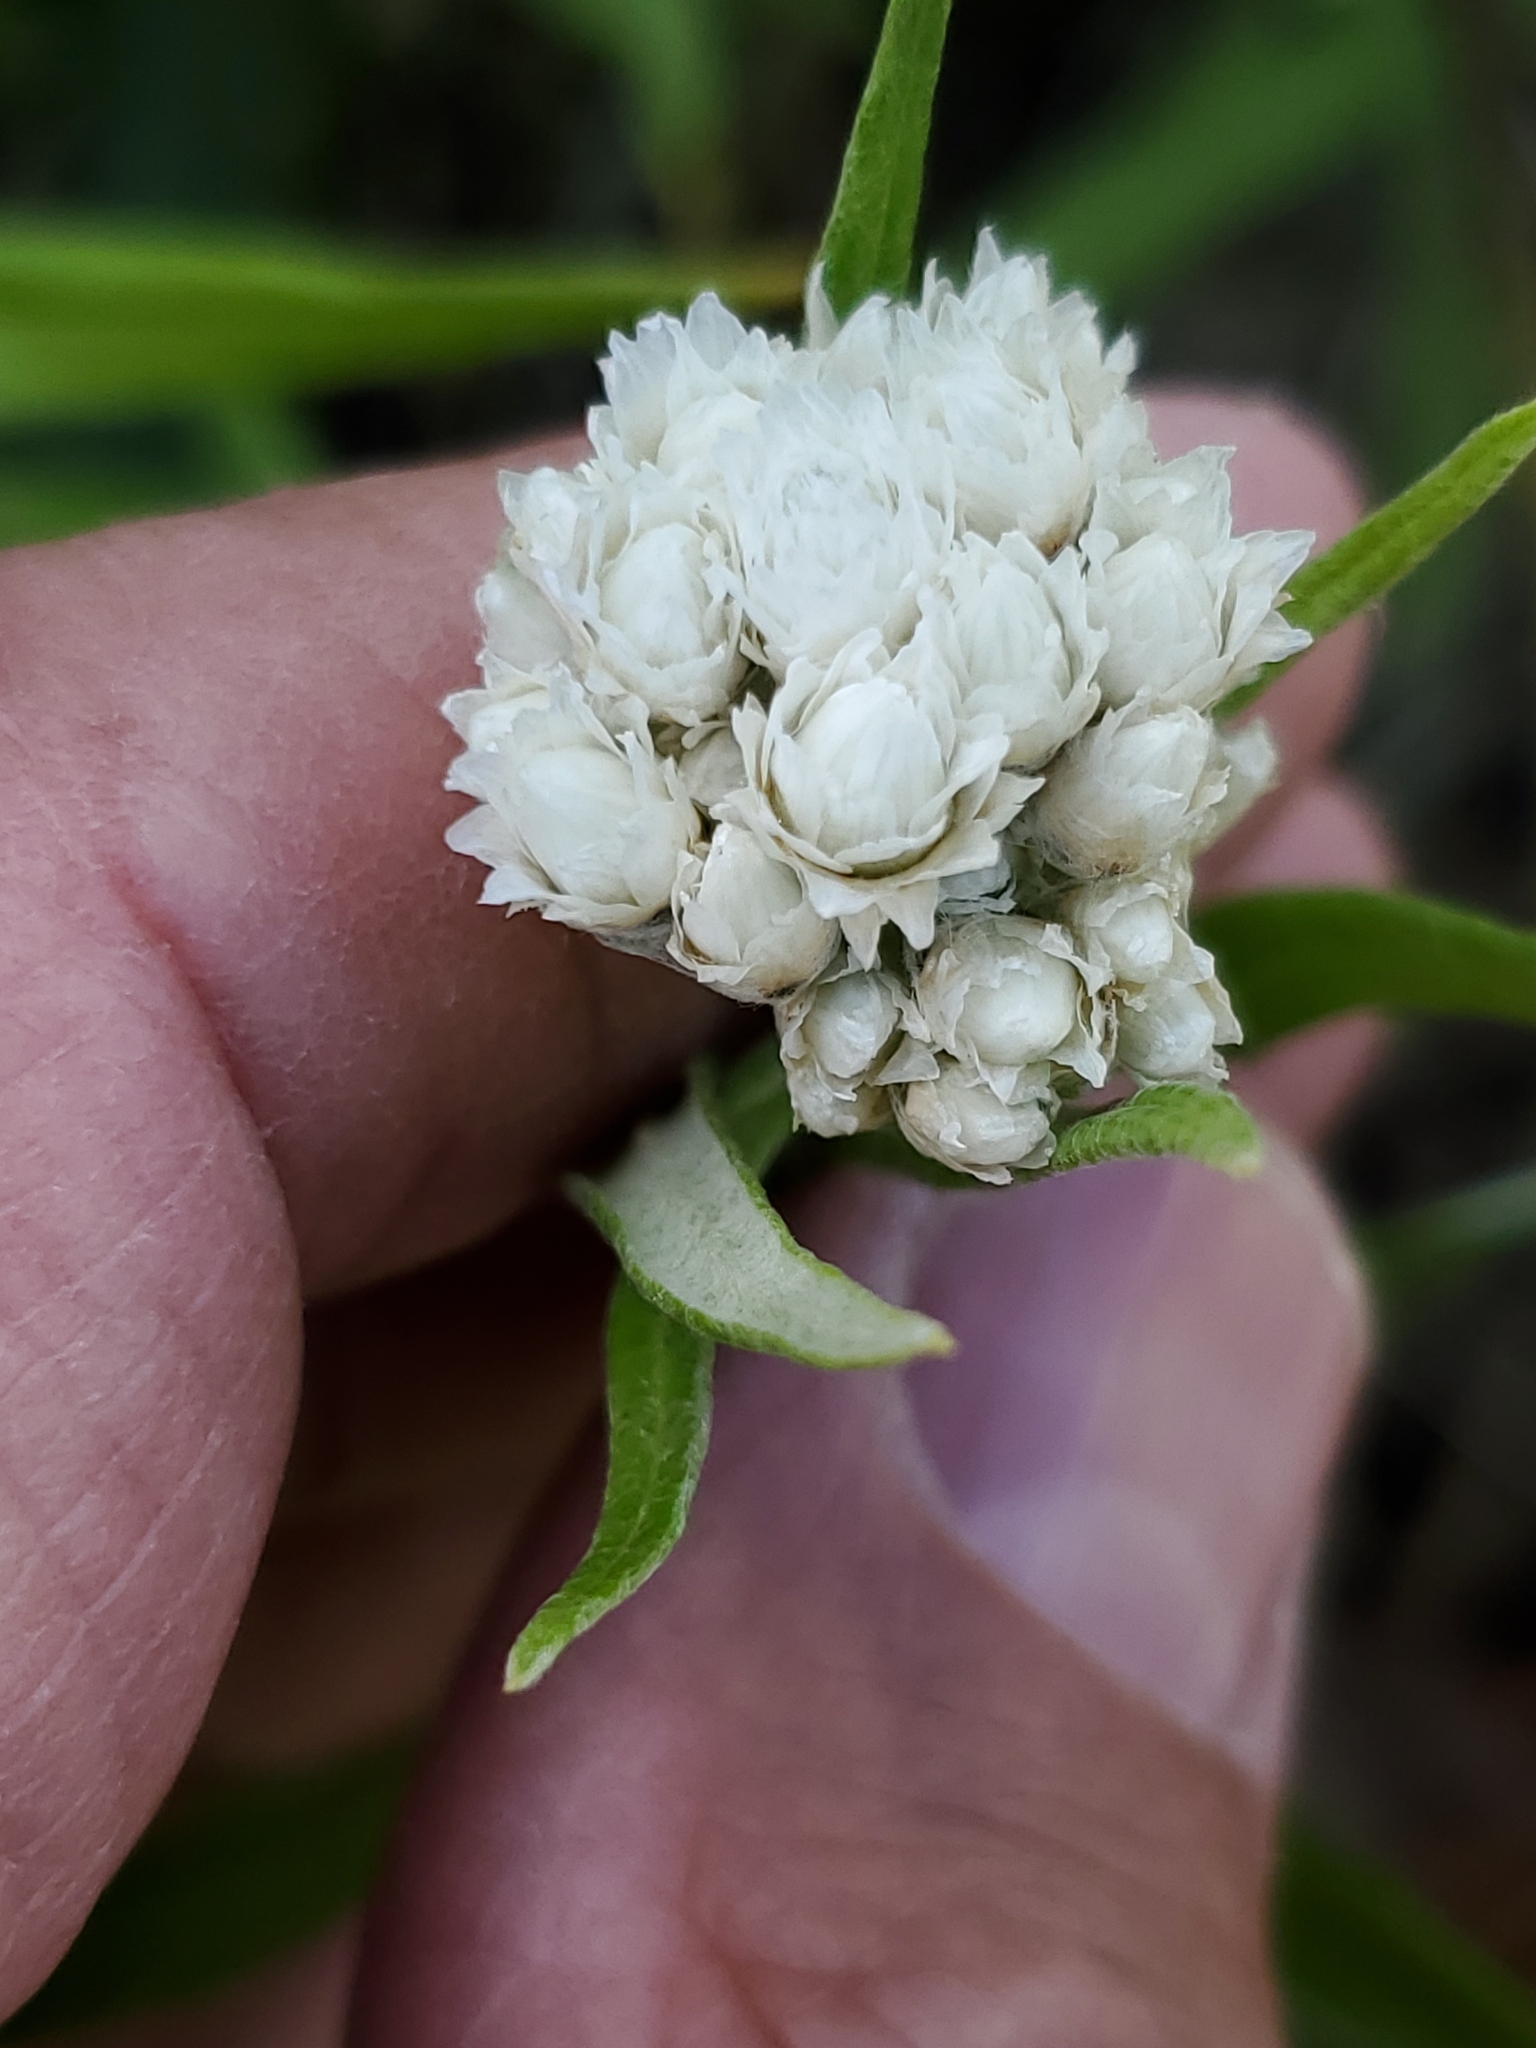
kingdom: Plantae
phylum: Tracheophyta
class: Magnoliopsida
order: Asterales
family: Asteraceae
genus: Anaphalis
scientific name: Anaphalis margaritacea
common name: Pearly everlasting
